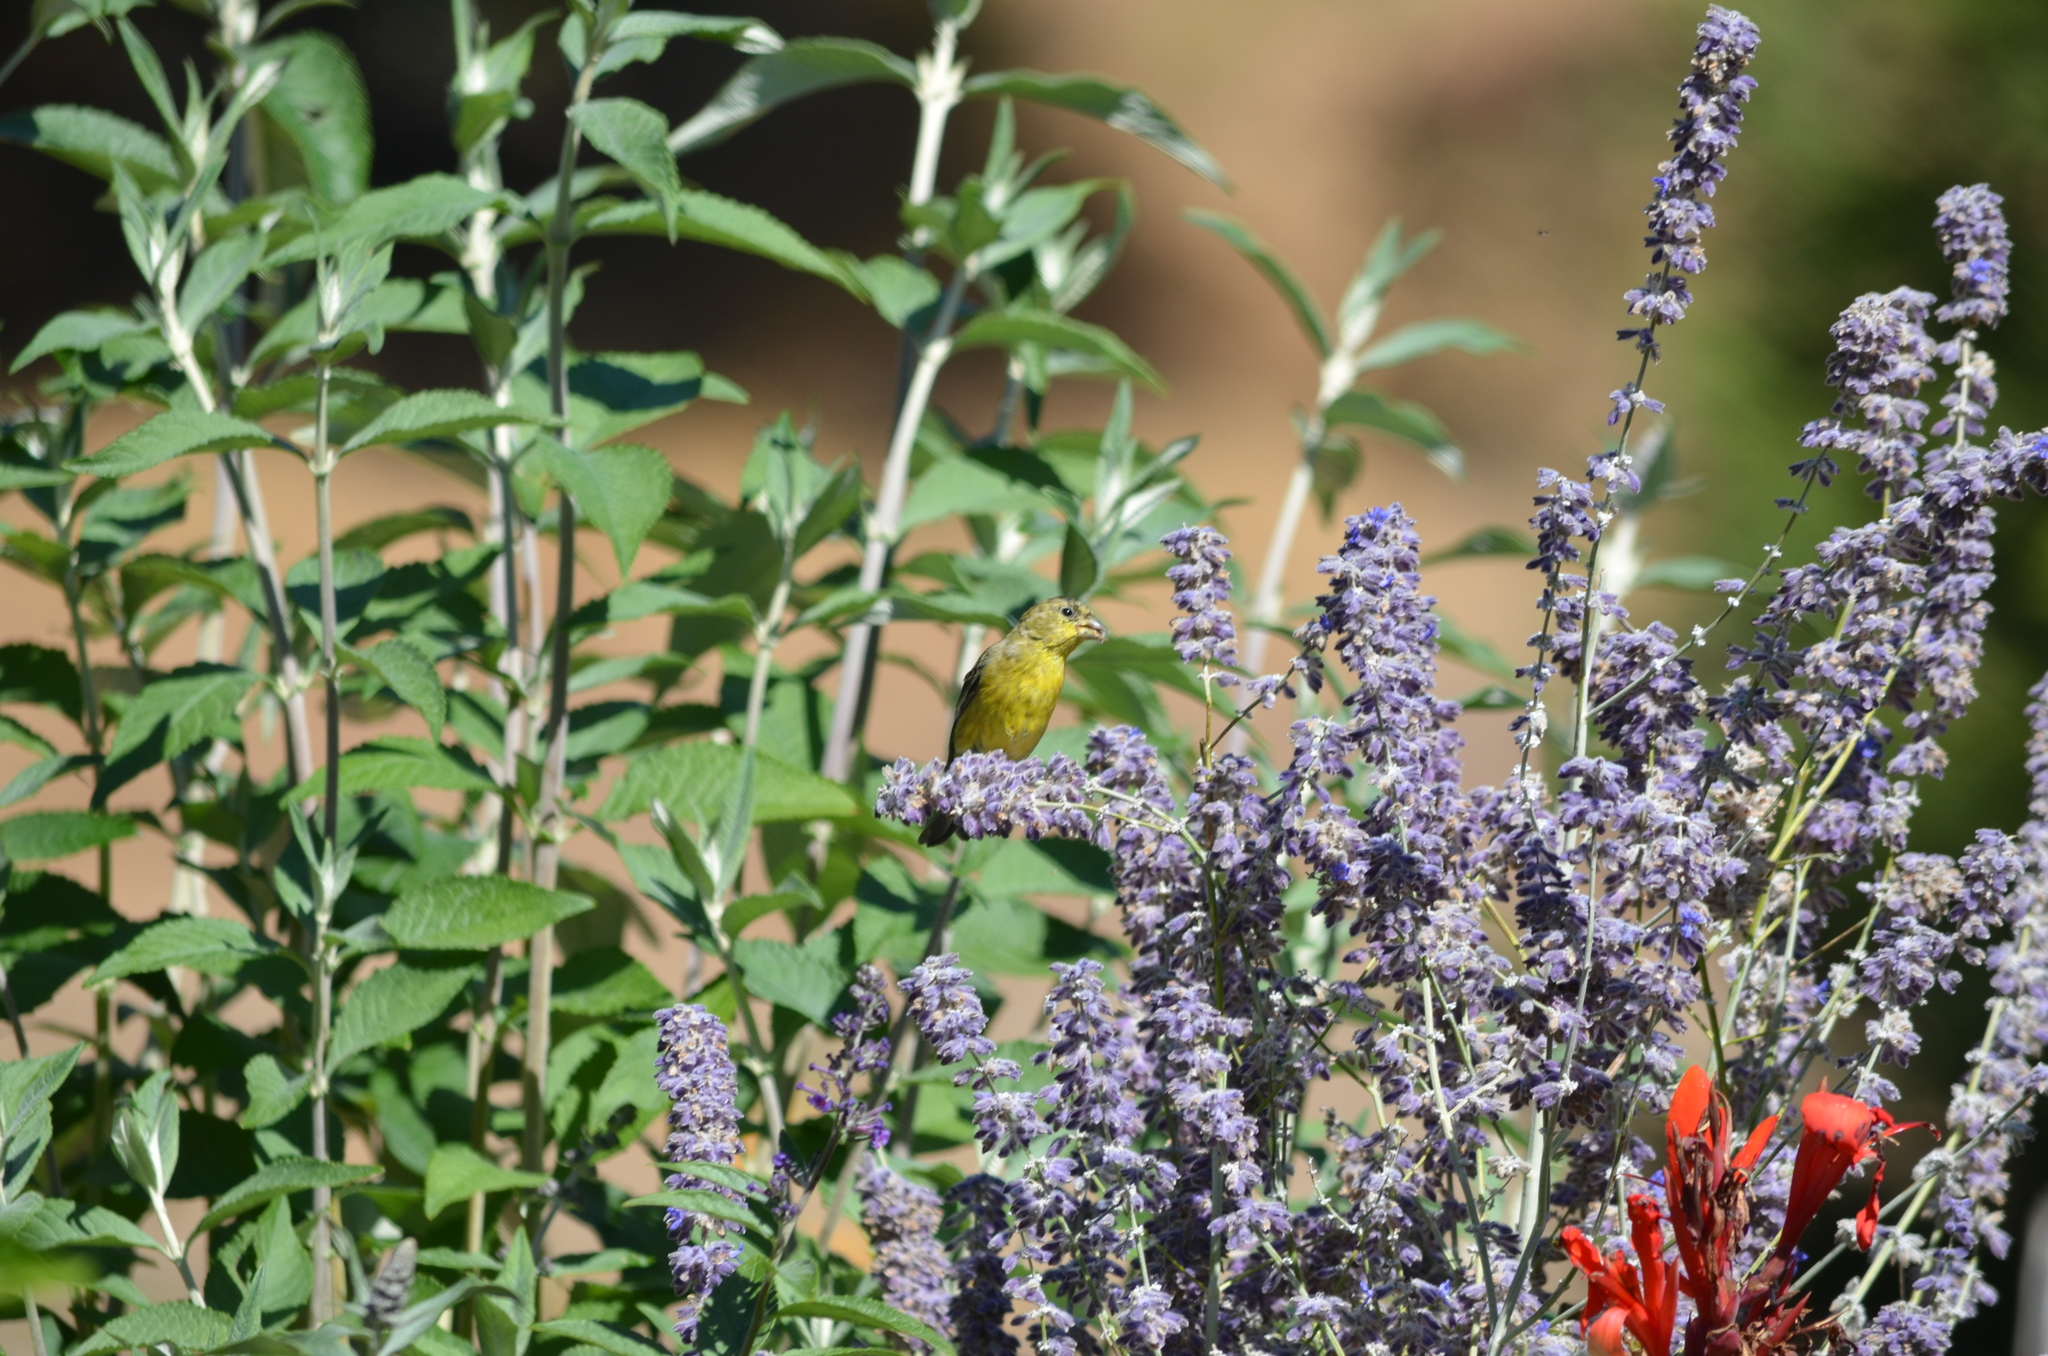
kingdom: Animalia
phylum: Chordata
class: Aves
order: Passeriformes
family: Fringillidae
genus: Spinus
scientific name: Spinus psaltria
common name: Lesser goldfinch
